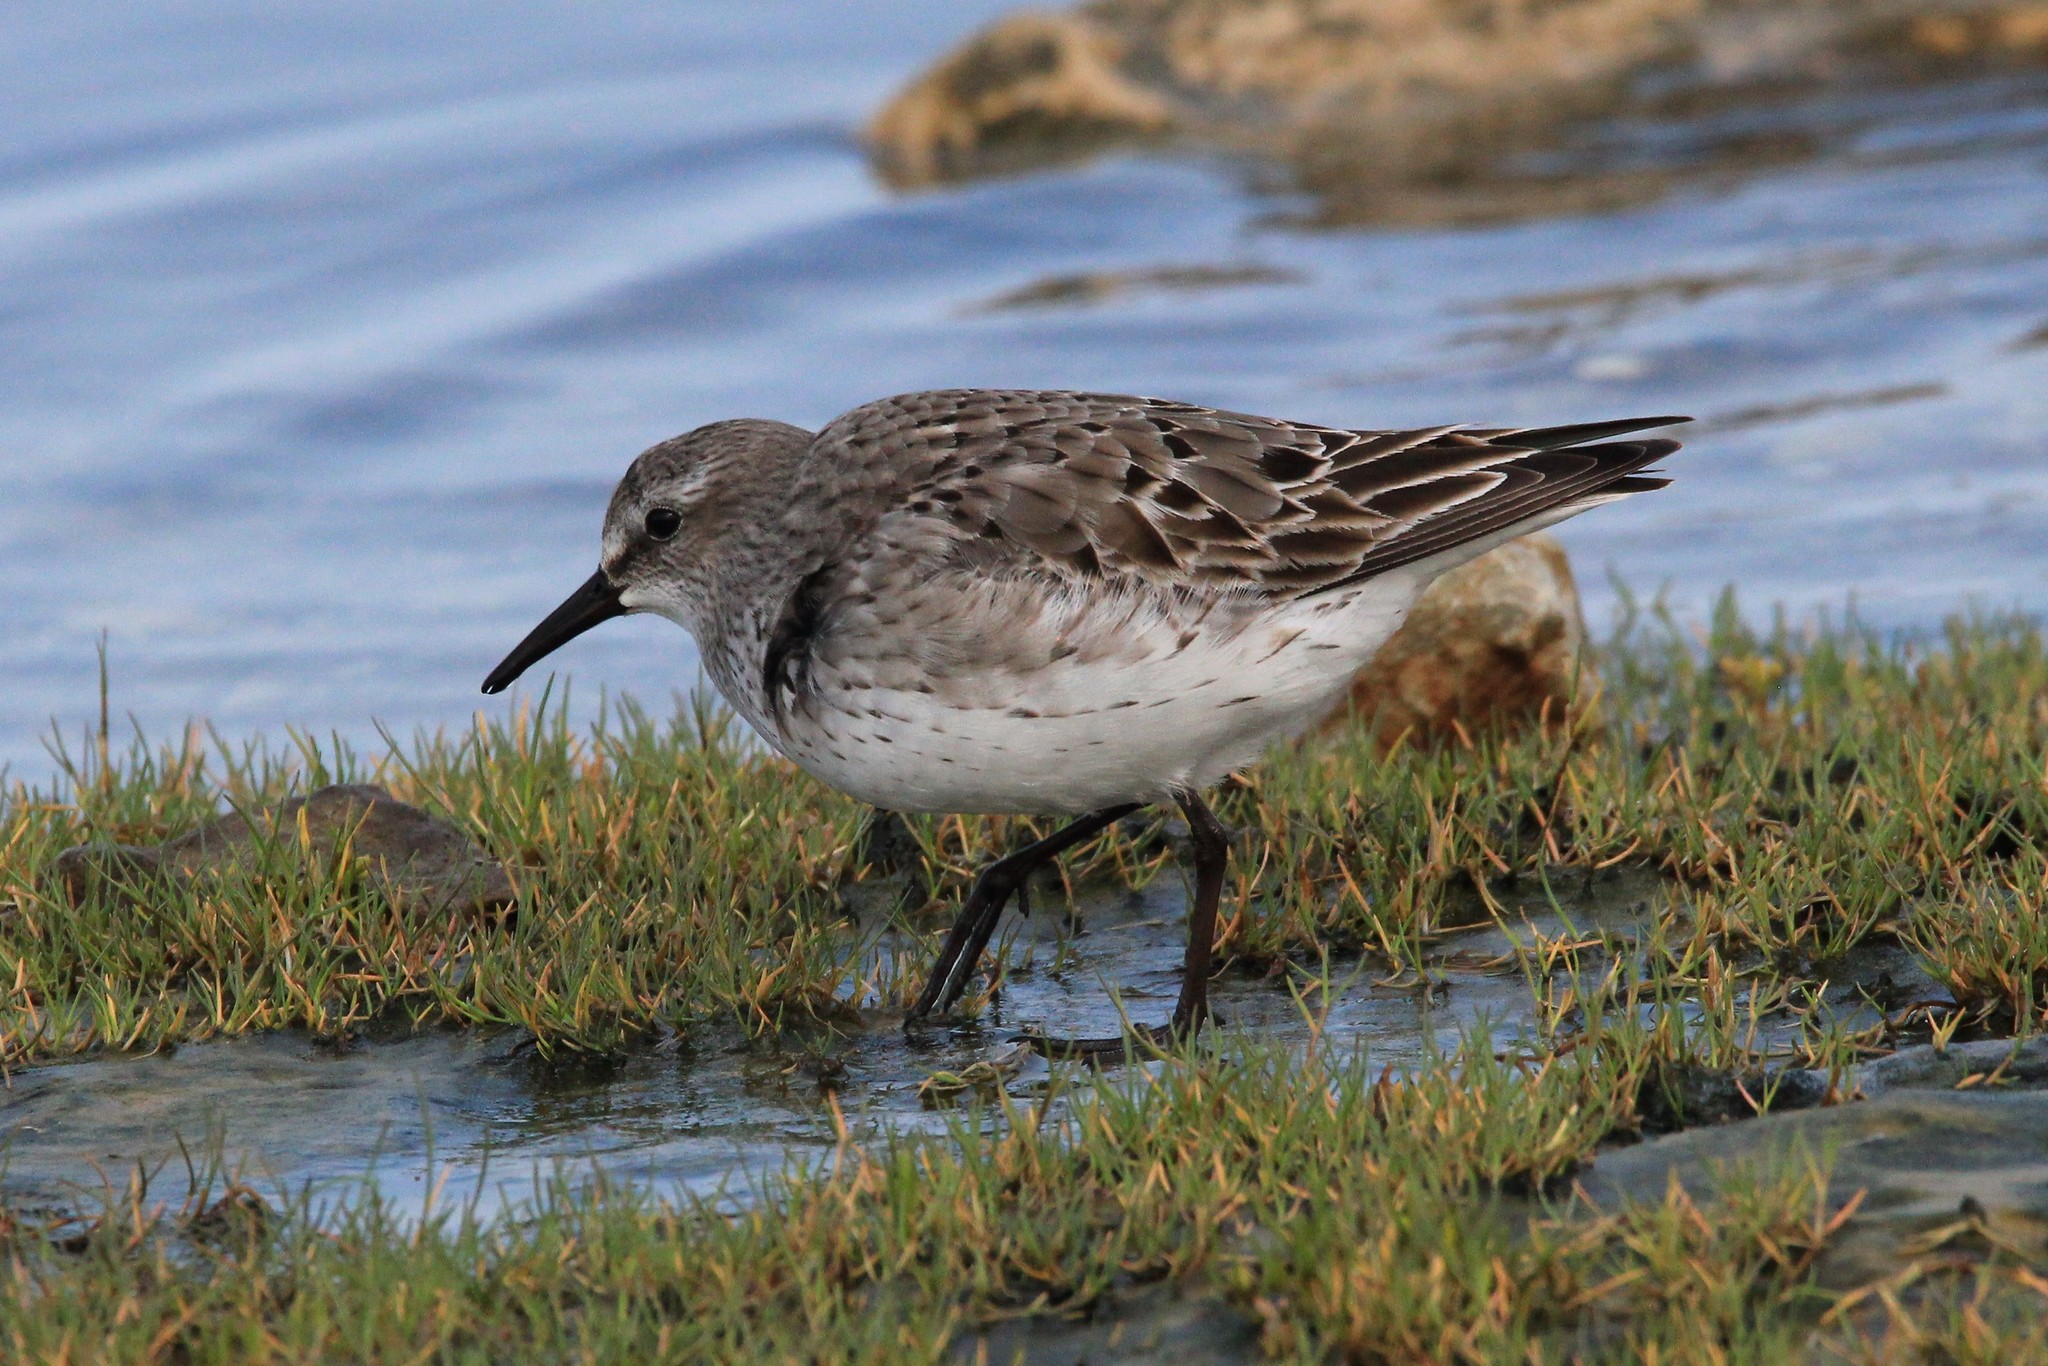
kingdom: Animalia
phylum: Chordata
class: Aves
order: Charadriiformes
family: Scolopacidae
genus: Calidris
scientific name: Calidris fuscicollis
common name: White-rumped sandpiper
